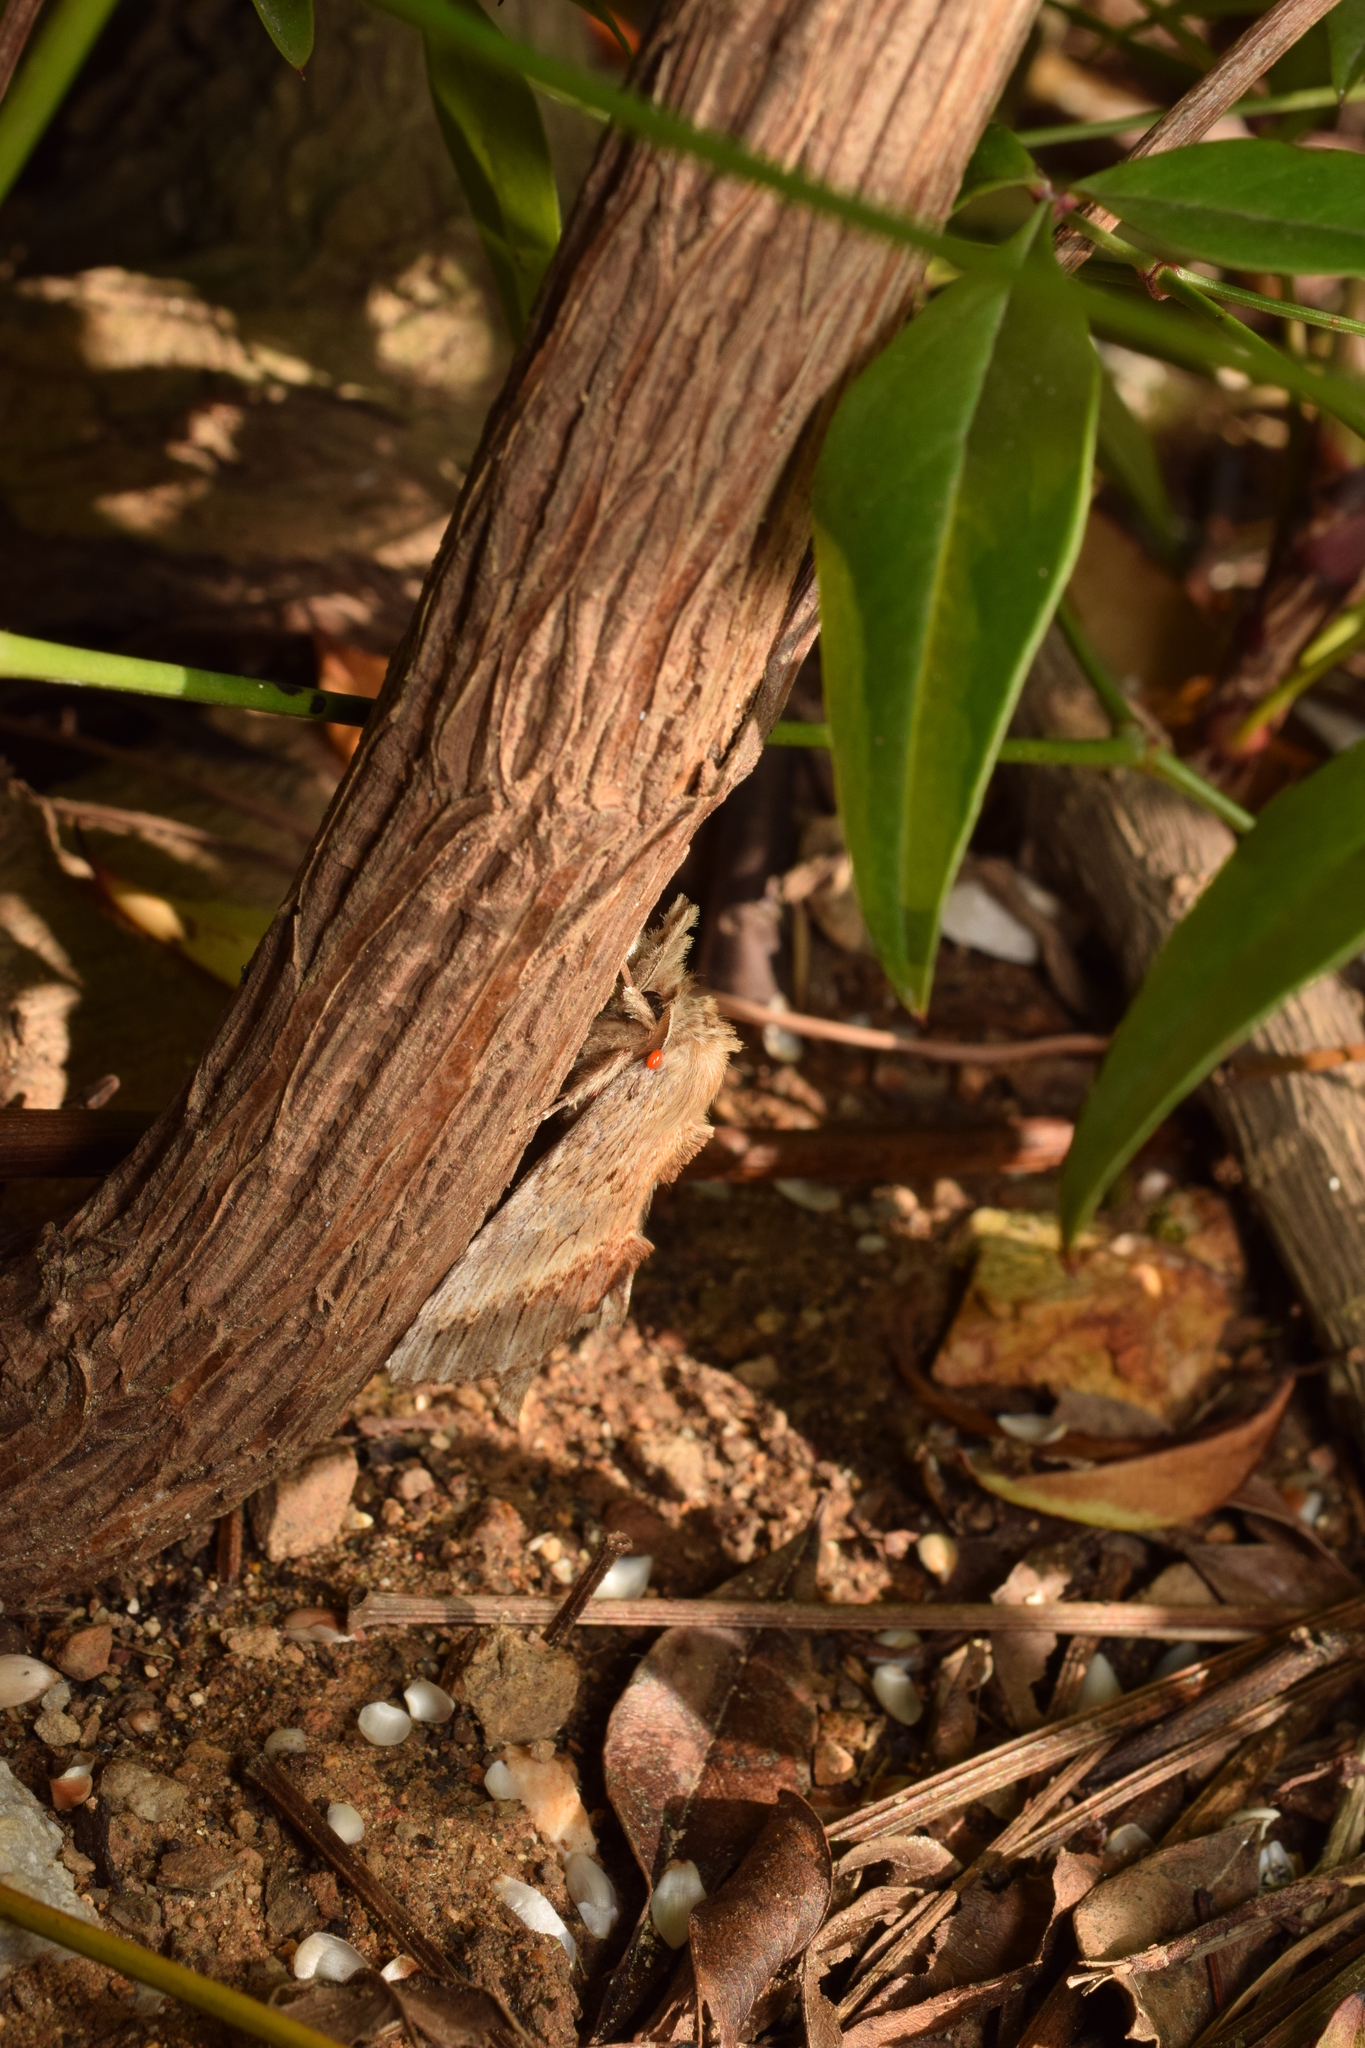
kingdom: Animalia
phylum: Arthropoda
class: Insecta
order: Lepidoptera
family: Notodontidae
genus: Pterostoma
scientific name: Pterostoma gigantina
